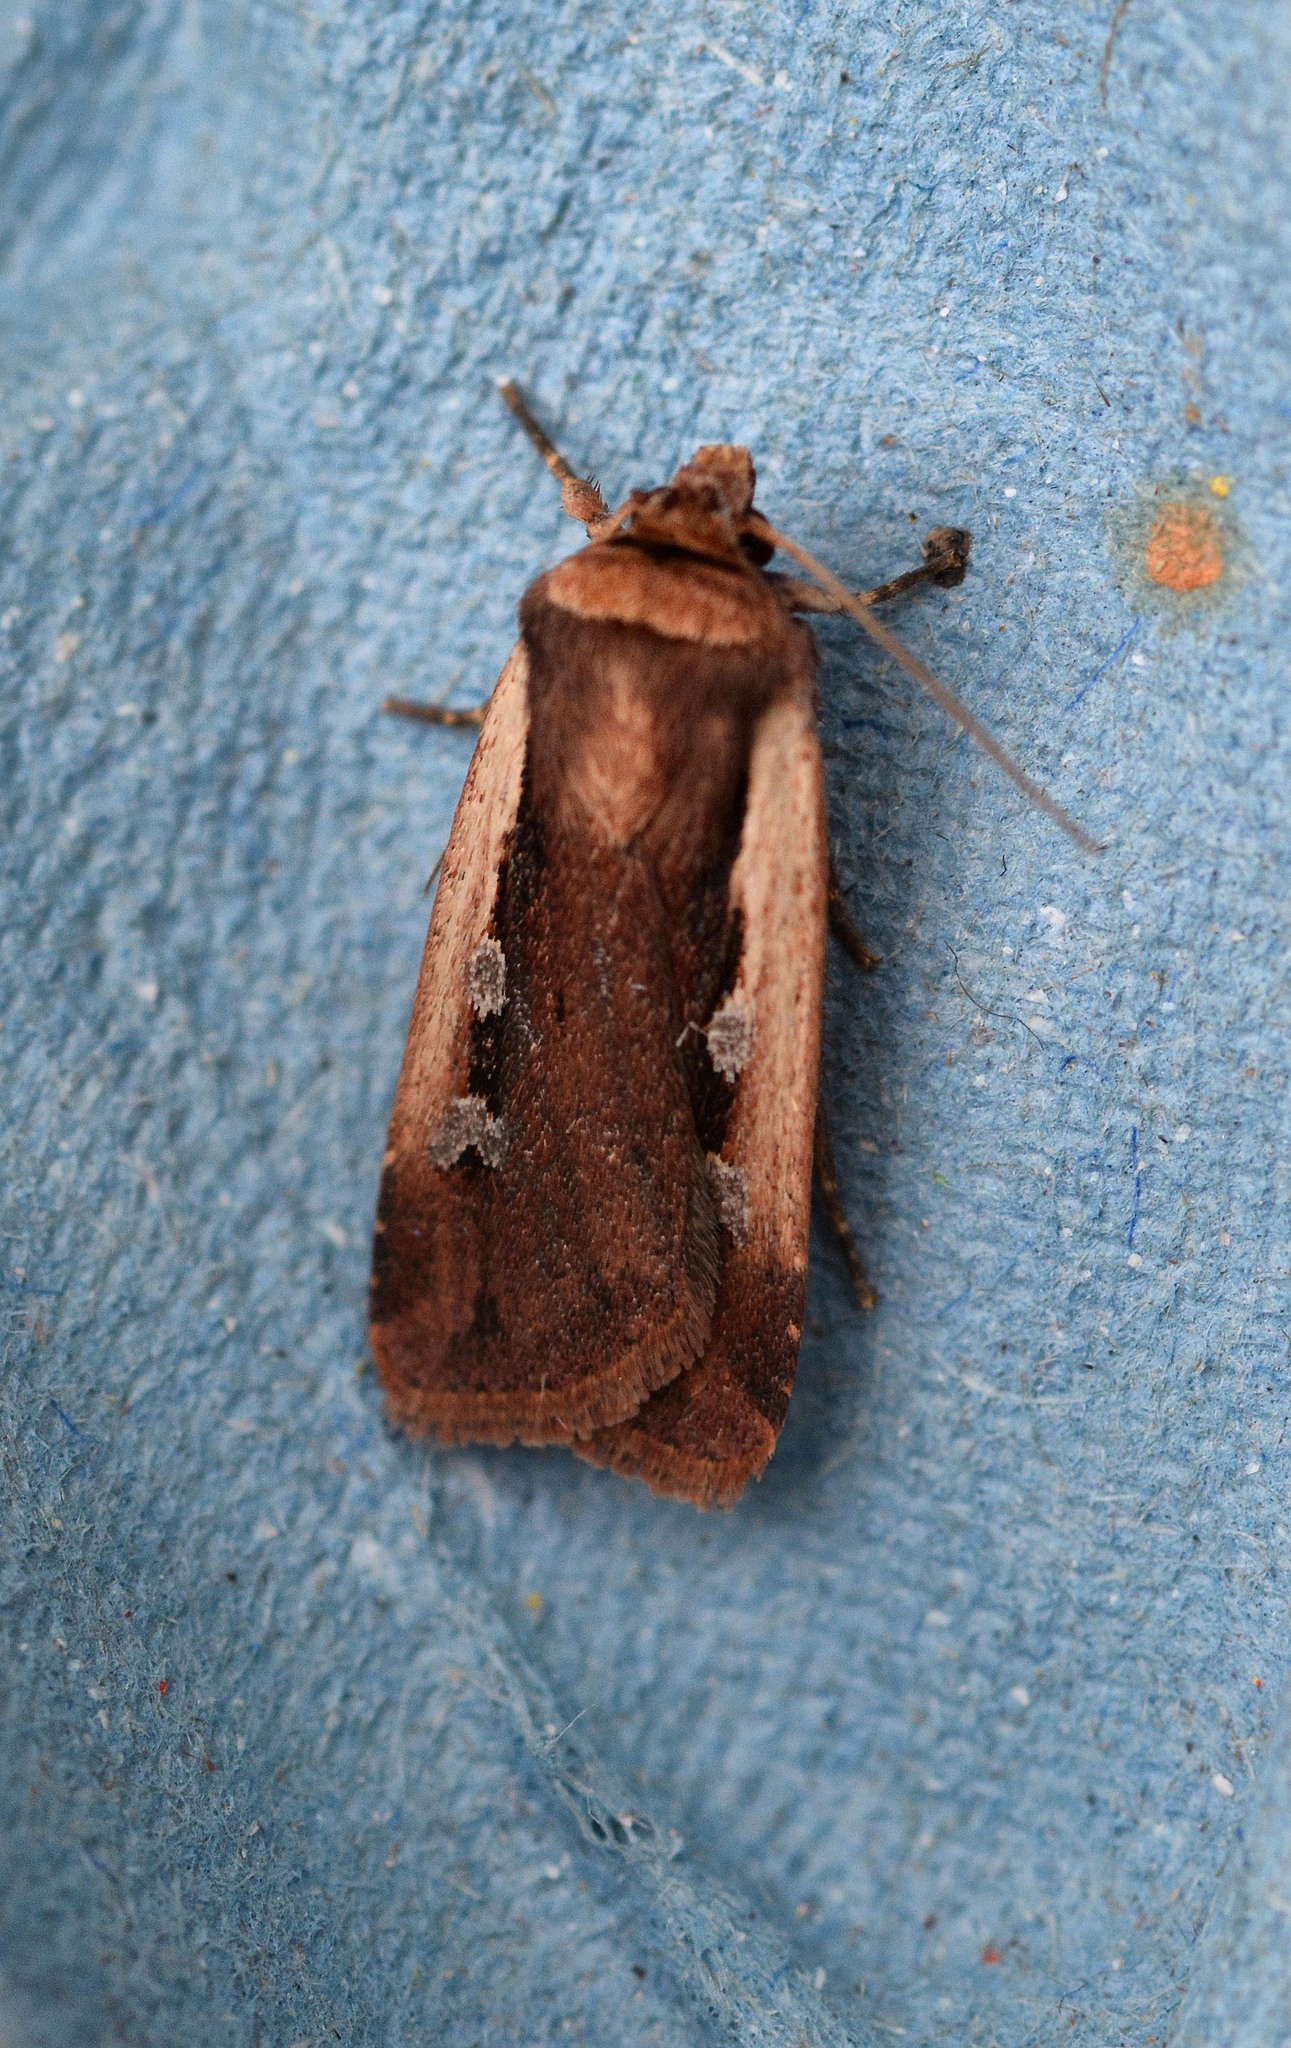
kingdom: Animalia
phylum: Arthropoda
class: Insecta
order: Lepidoptera
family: Noctuidae
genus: Ochropleura
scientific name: Ochropleura plecta
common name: Flame shoulder
